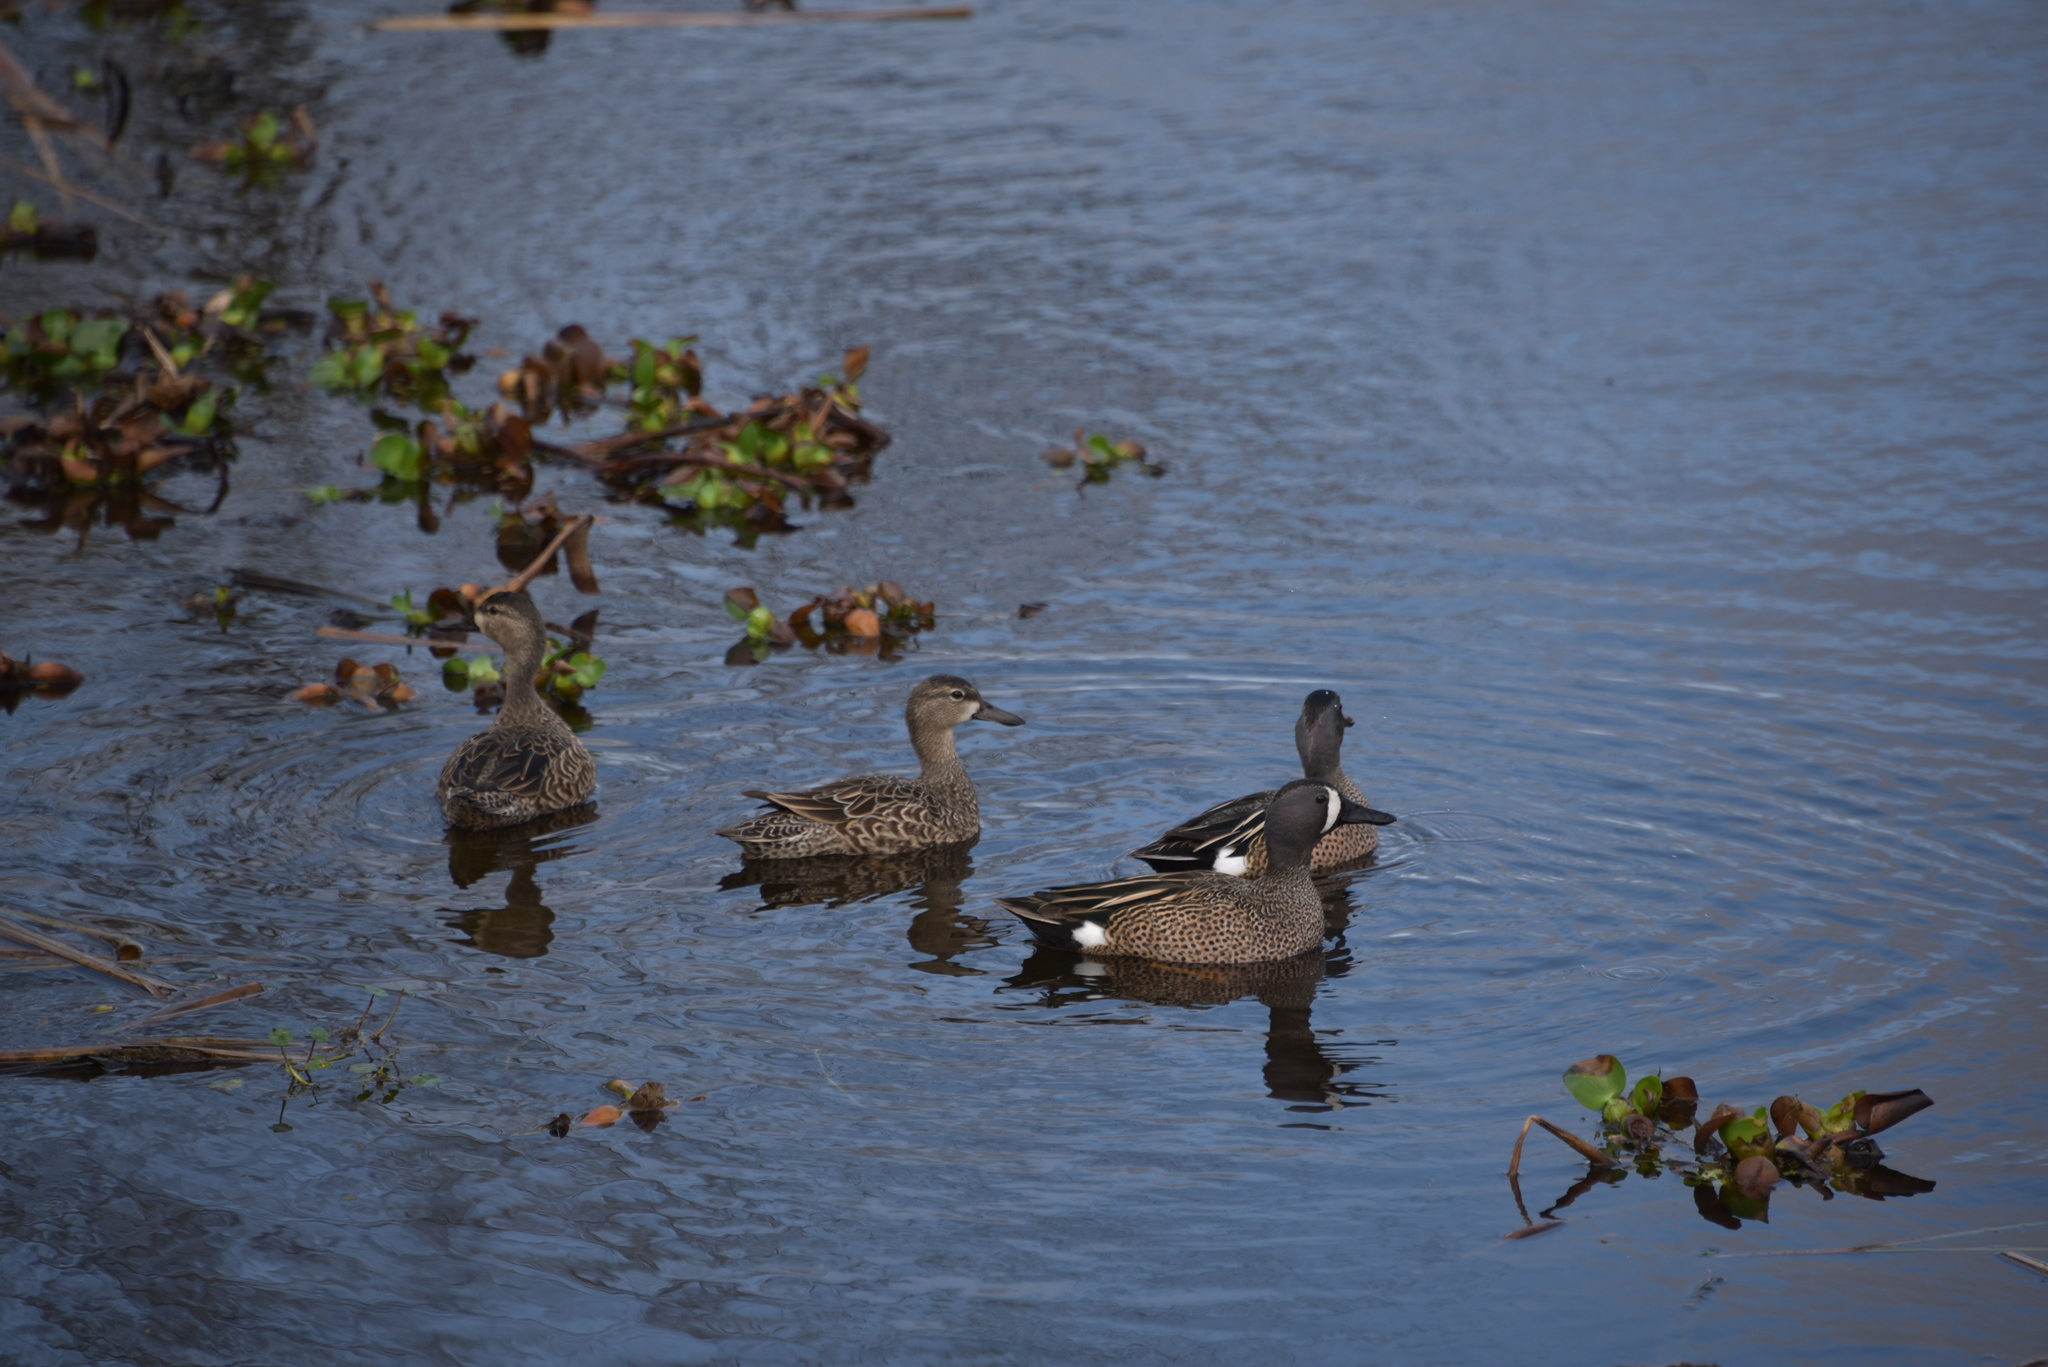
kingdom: Animalia
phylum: Chordata
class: Aves
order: Anseriformes
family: Anatidae
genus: Spatula
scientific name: Spatula discors
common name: Blue-winged teal
